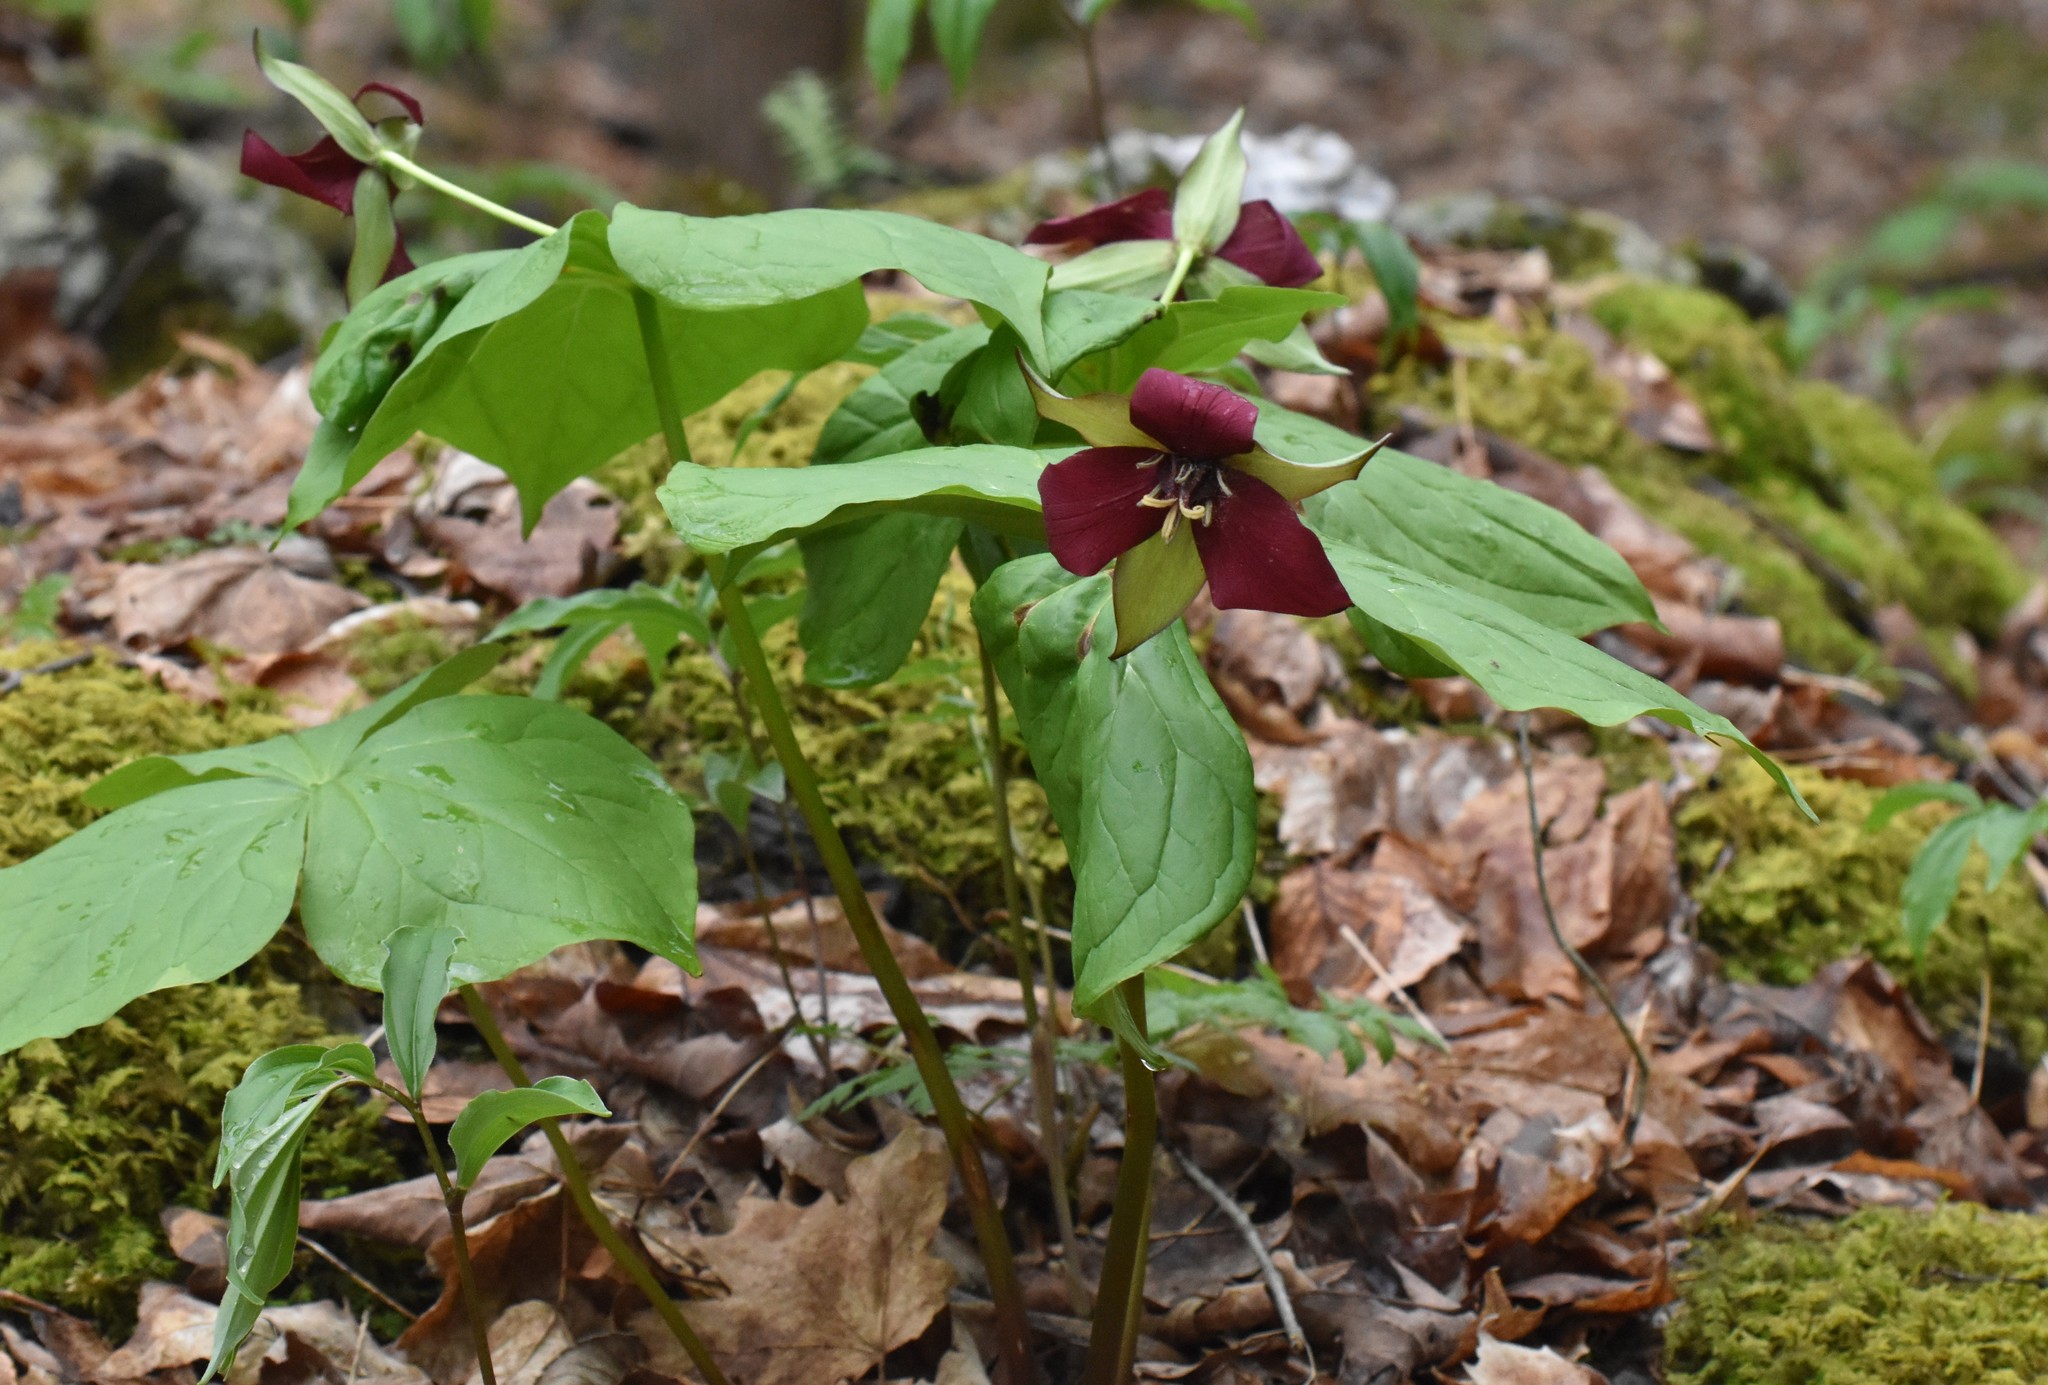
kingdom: Plantae
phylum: Tracheophyta
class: Liliopsida
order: Liliales
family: Melanthiaceae
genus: Trillium
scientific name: Trillium erectum
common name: Purple trillium
